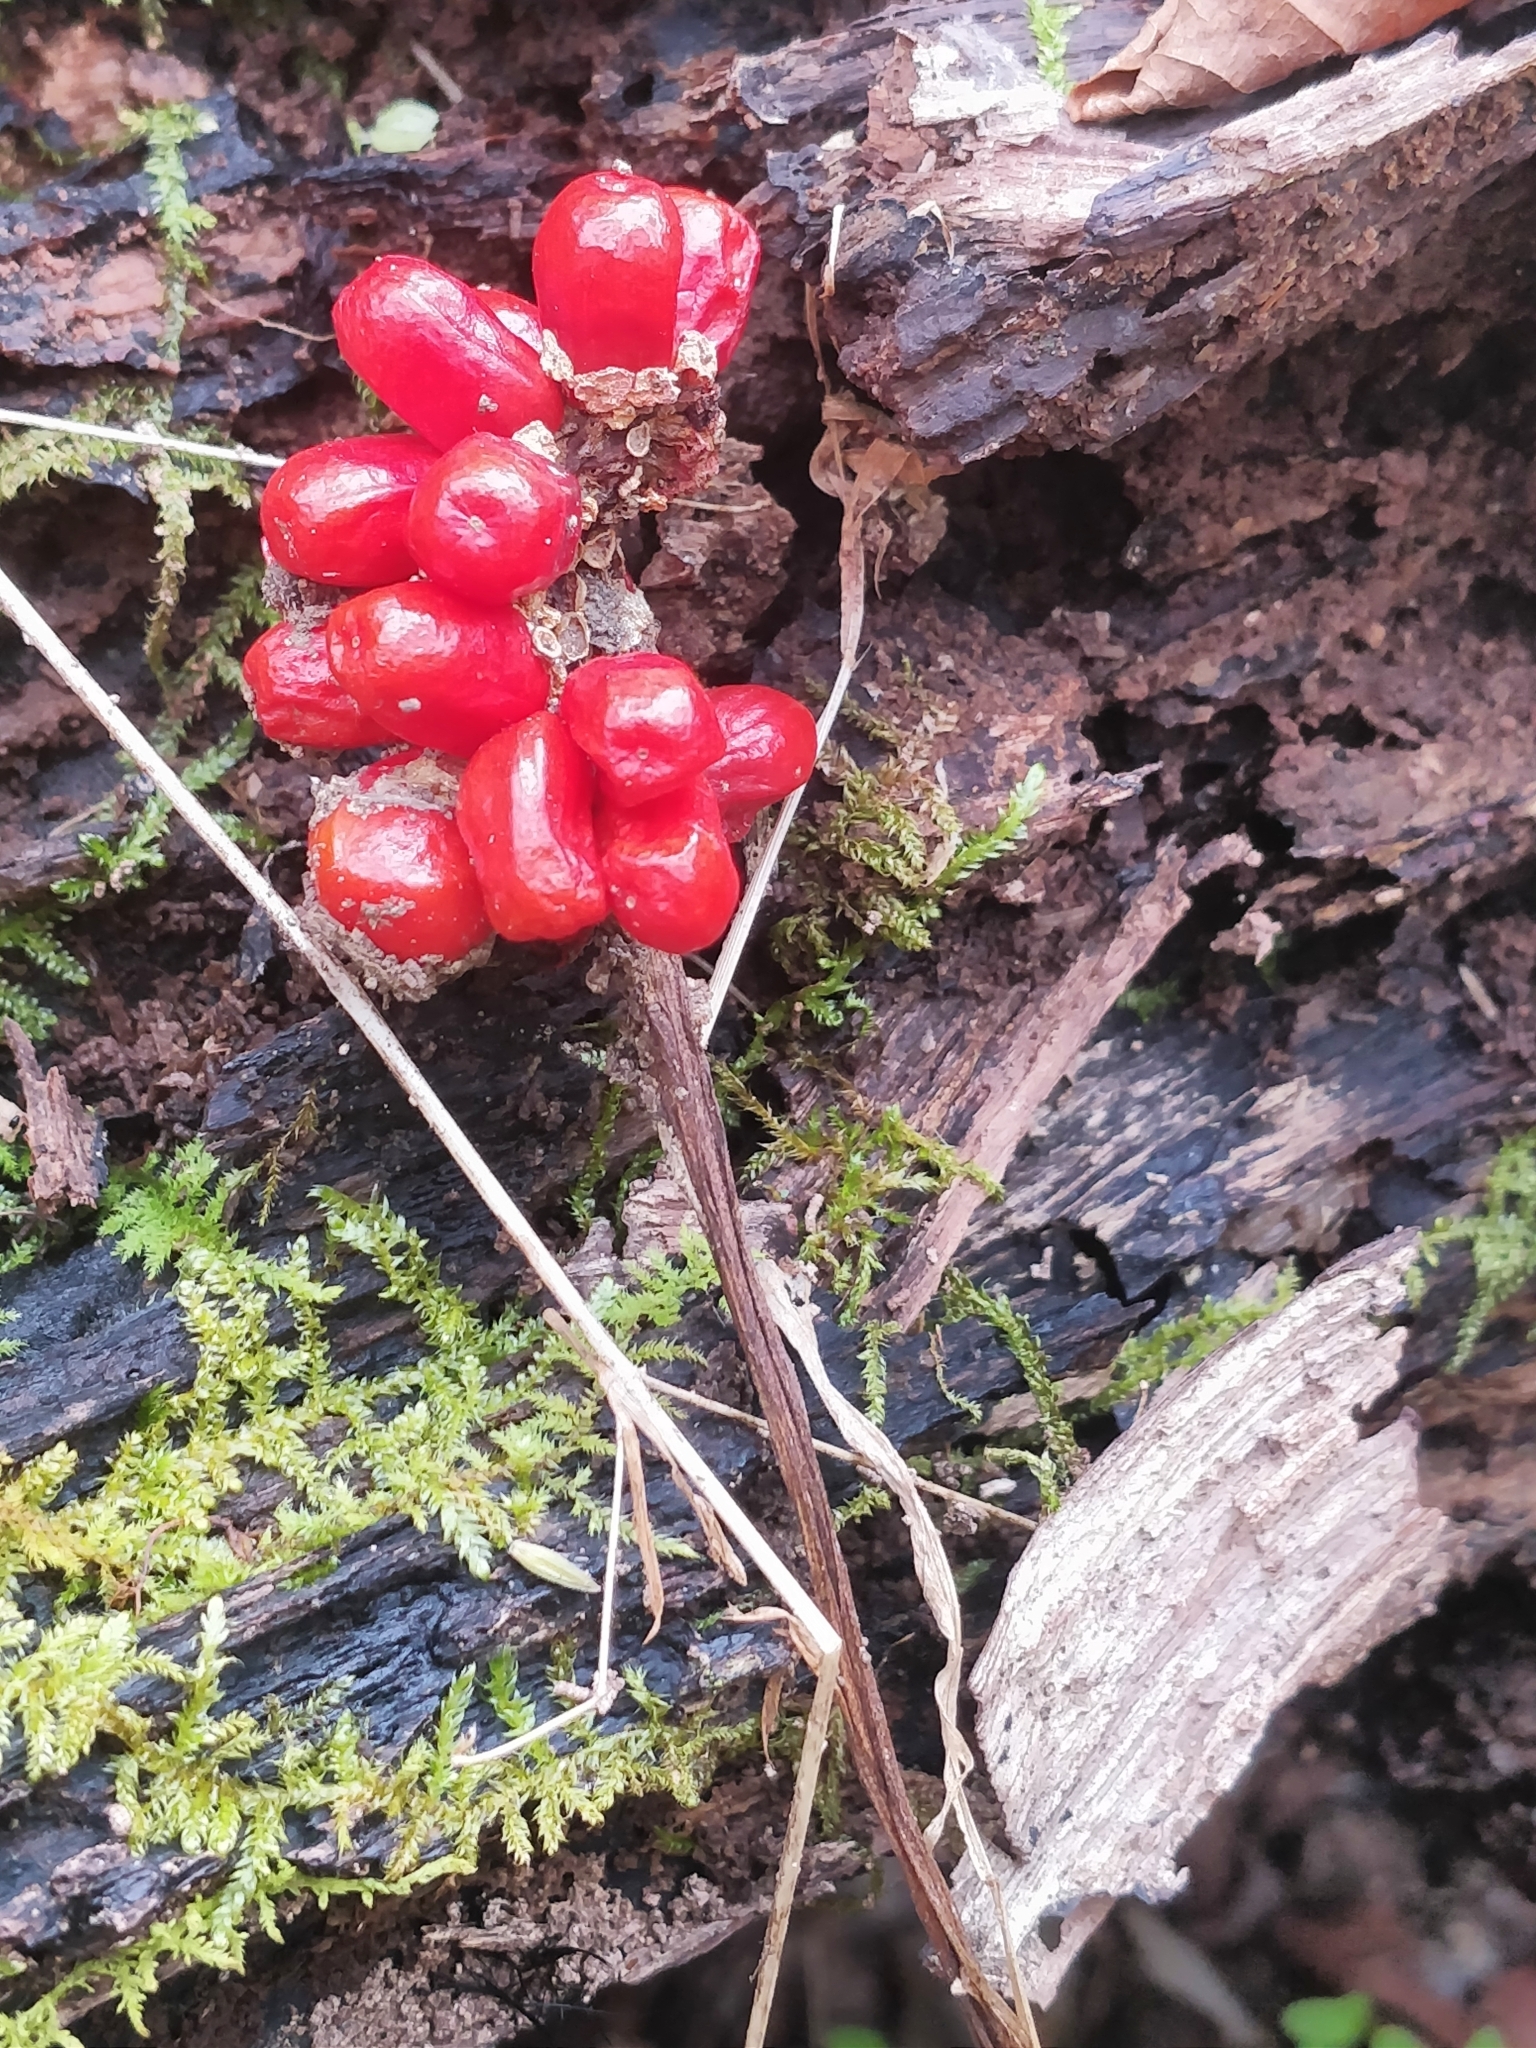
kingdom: Plantae
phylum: Tracheophyta
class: Liliopsida
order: Alismatales
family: Araceae
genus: Arisaema
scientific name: Arisaema triphyllum
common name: Jack-in-the-pulpit
